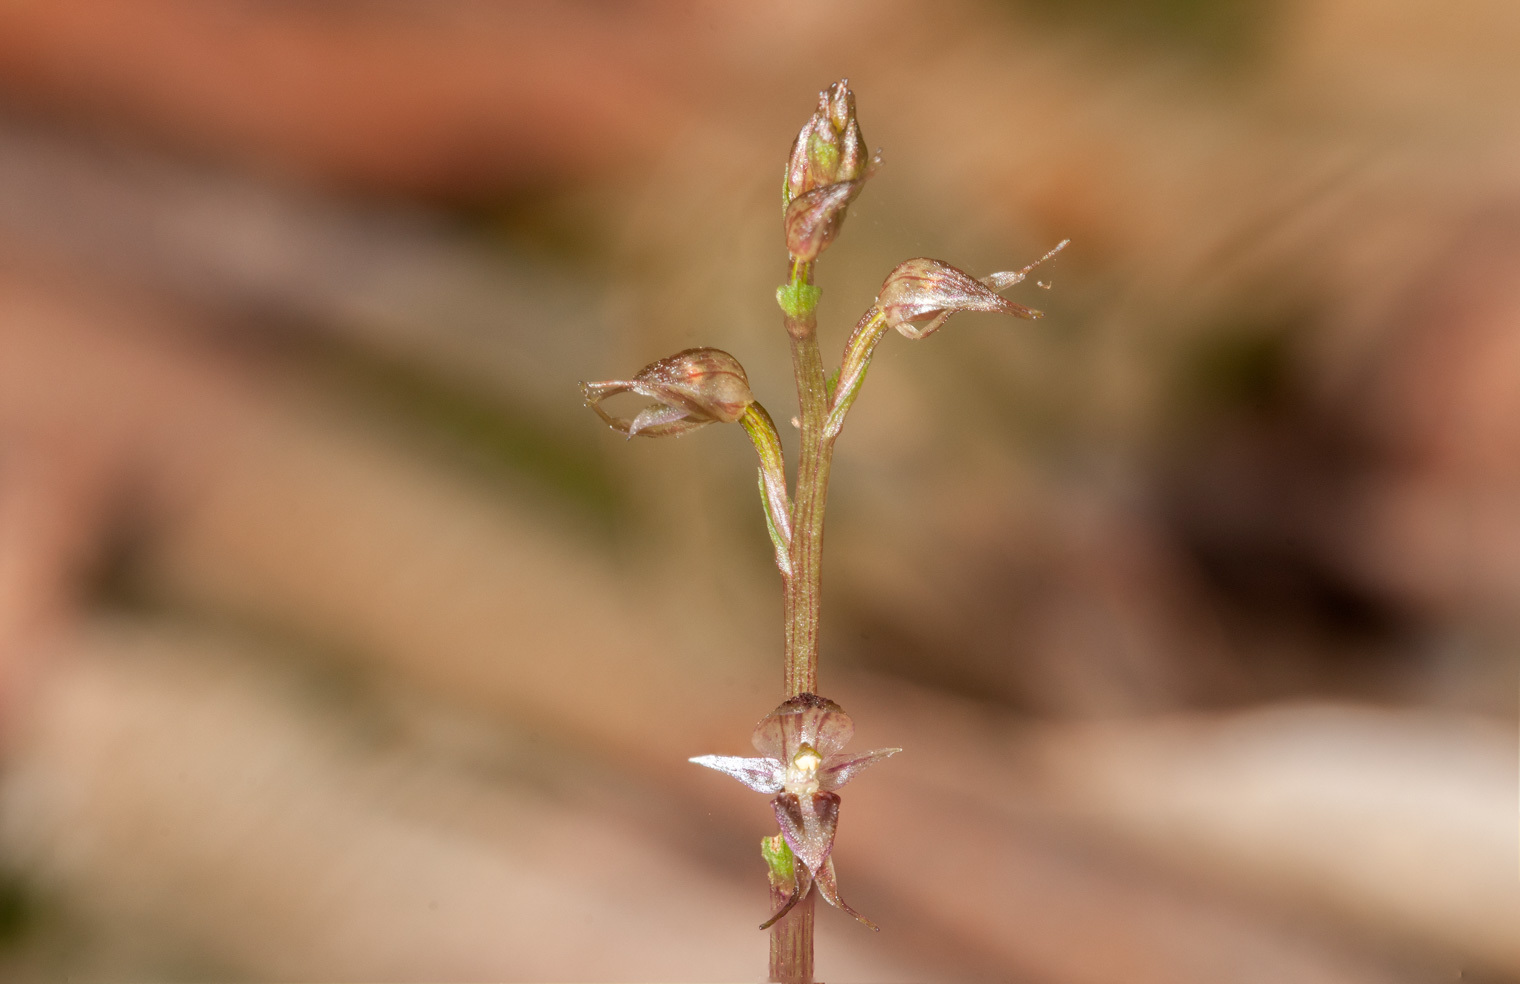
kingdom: Plantae
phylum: Tracheophyta
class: Liliopsida
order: Asparagales
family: Orchidaceae
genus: Acianthus
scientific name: Acianthus fornicatus
